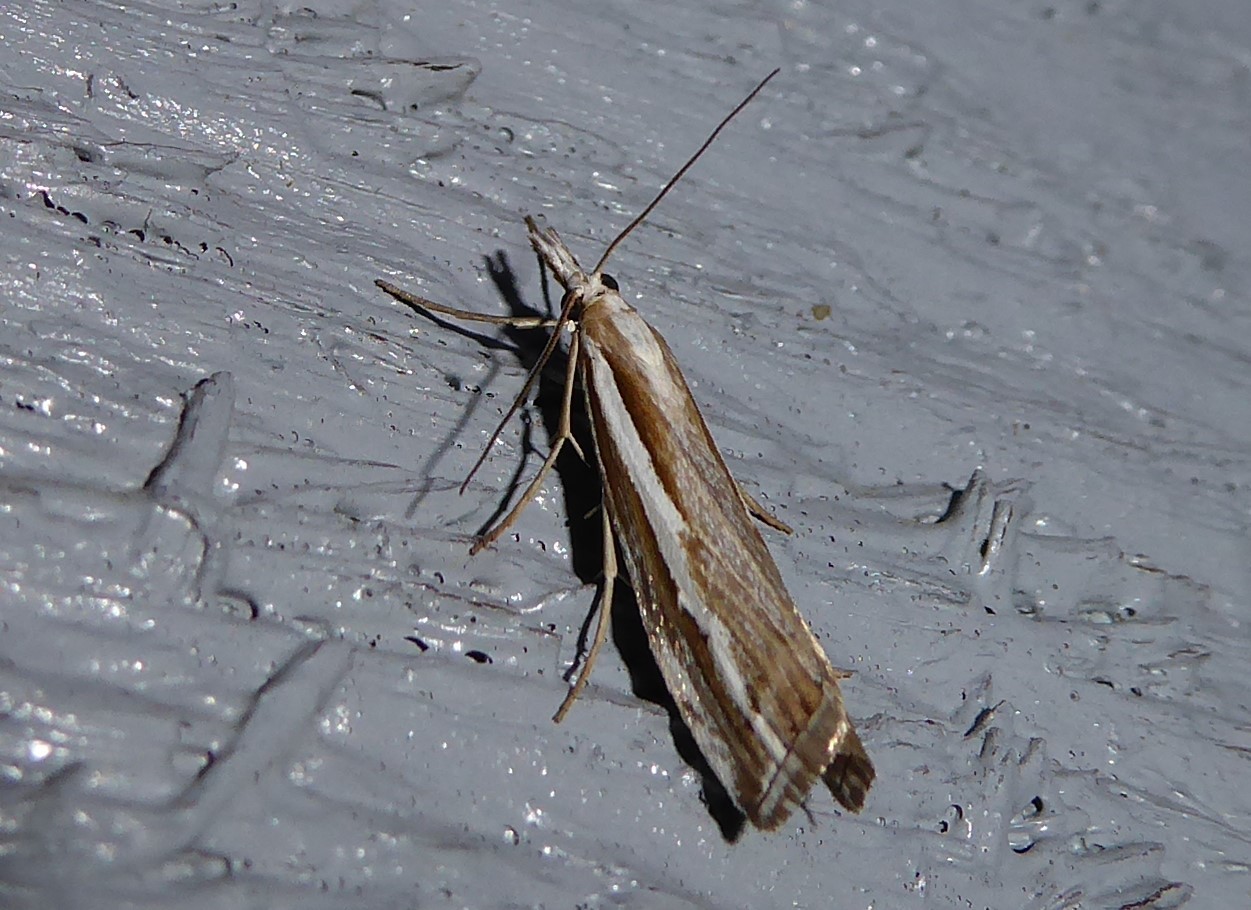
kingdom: Animalia
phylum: Arthropoda
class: Insecta
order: Lepidoptera
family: Crambidae
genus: Orocrambus
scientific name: Orocrambus vittellus
